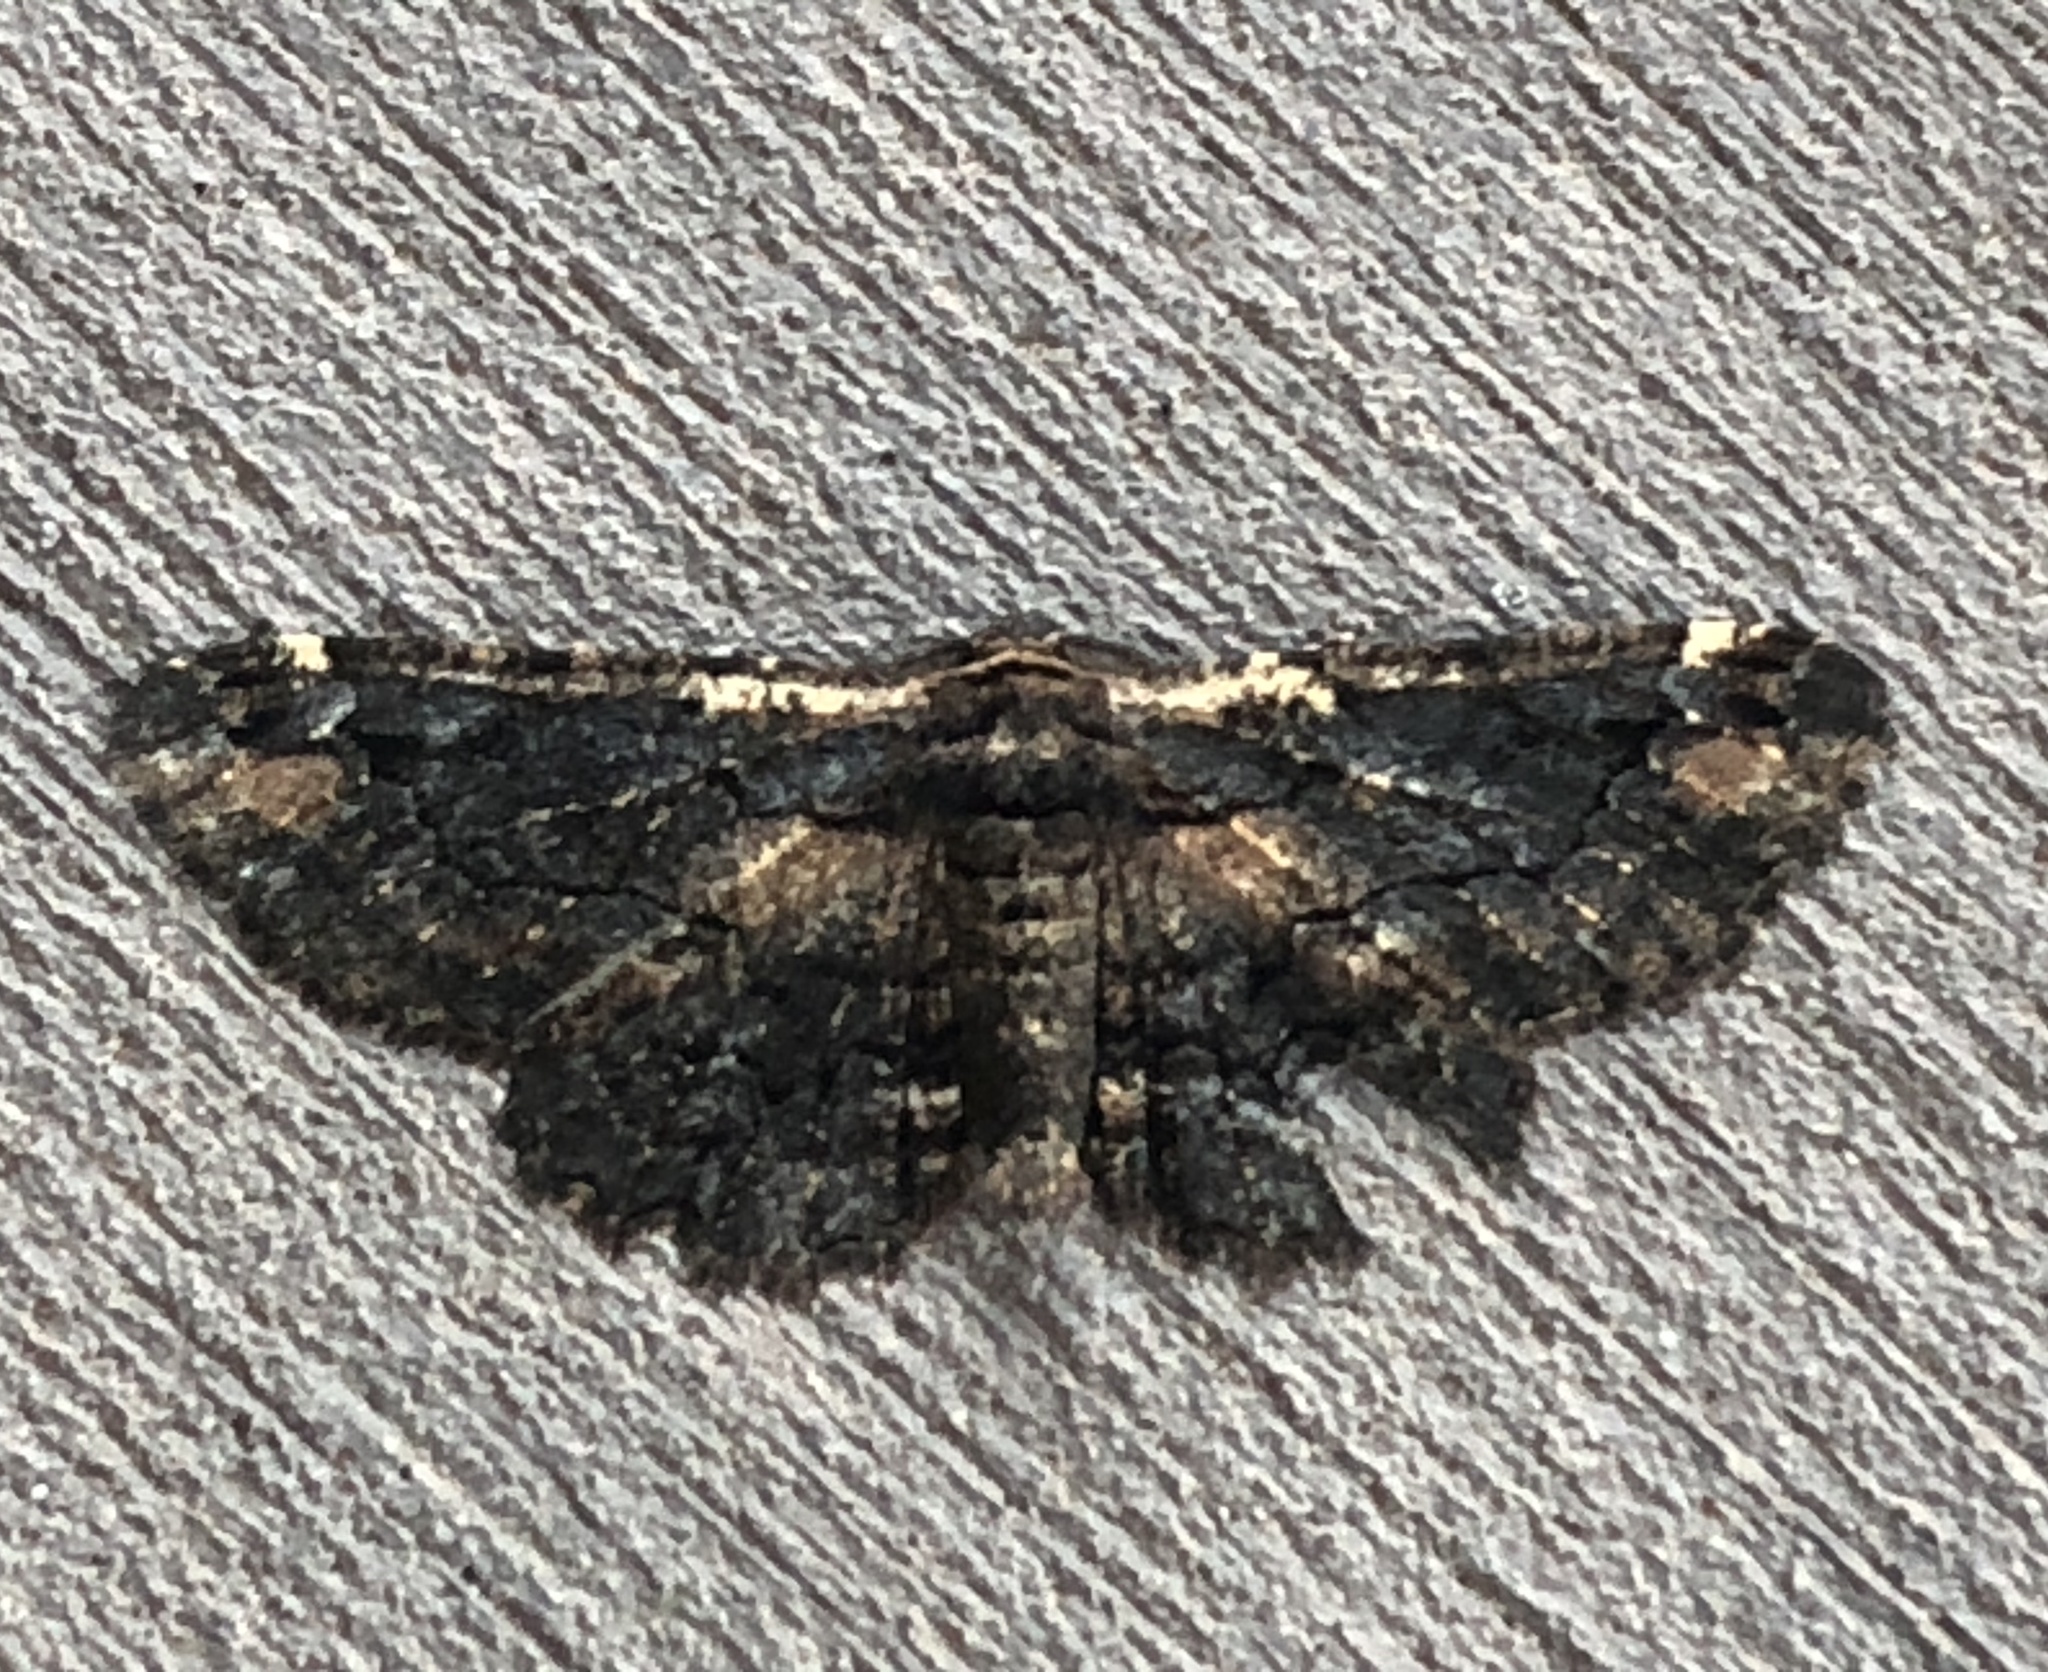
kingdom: Animalia
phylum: Arthropoda
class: Insecta
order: Lepidoptera
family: Geometridae
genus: Pholodes
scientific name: Pholodes sinistraria
